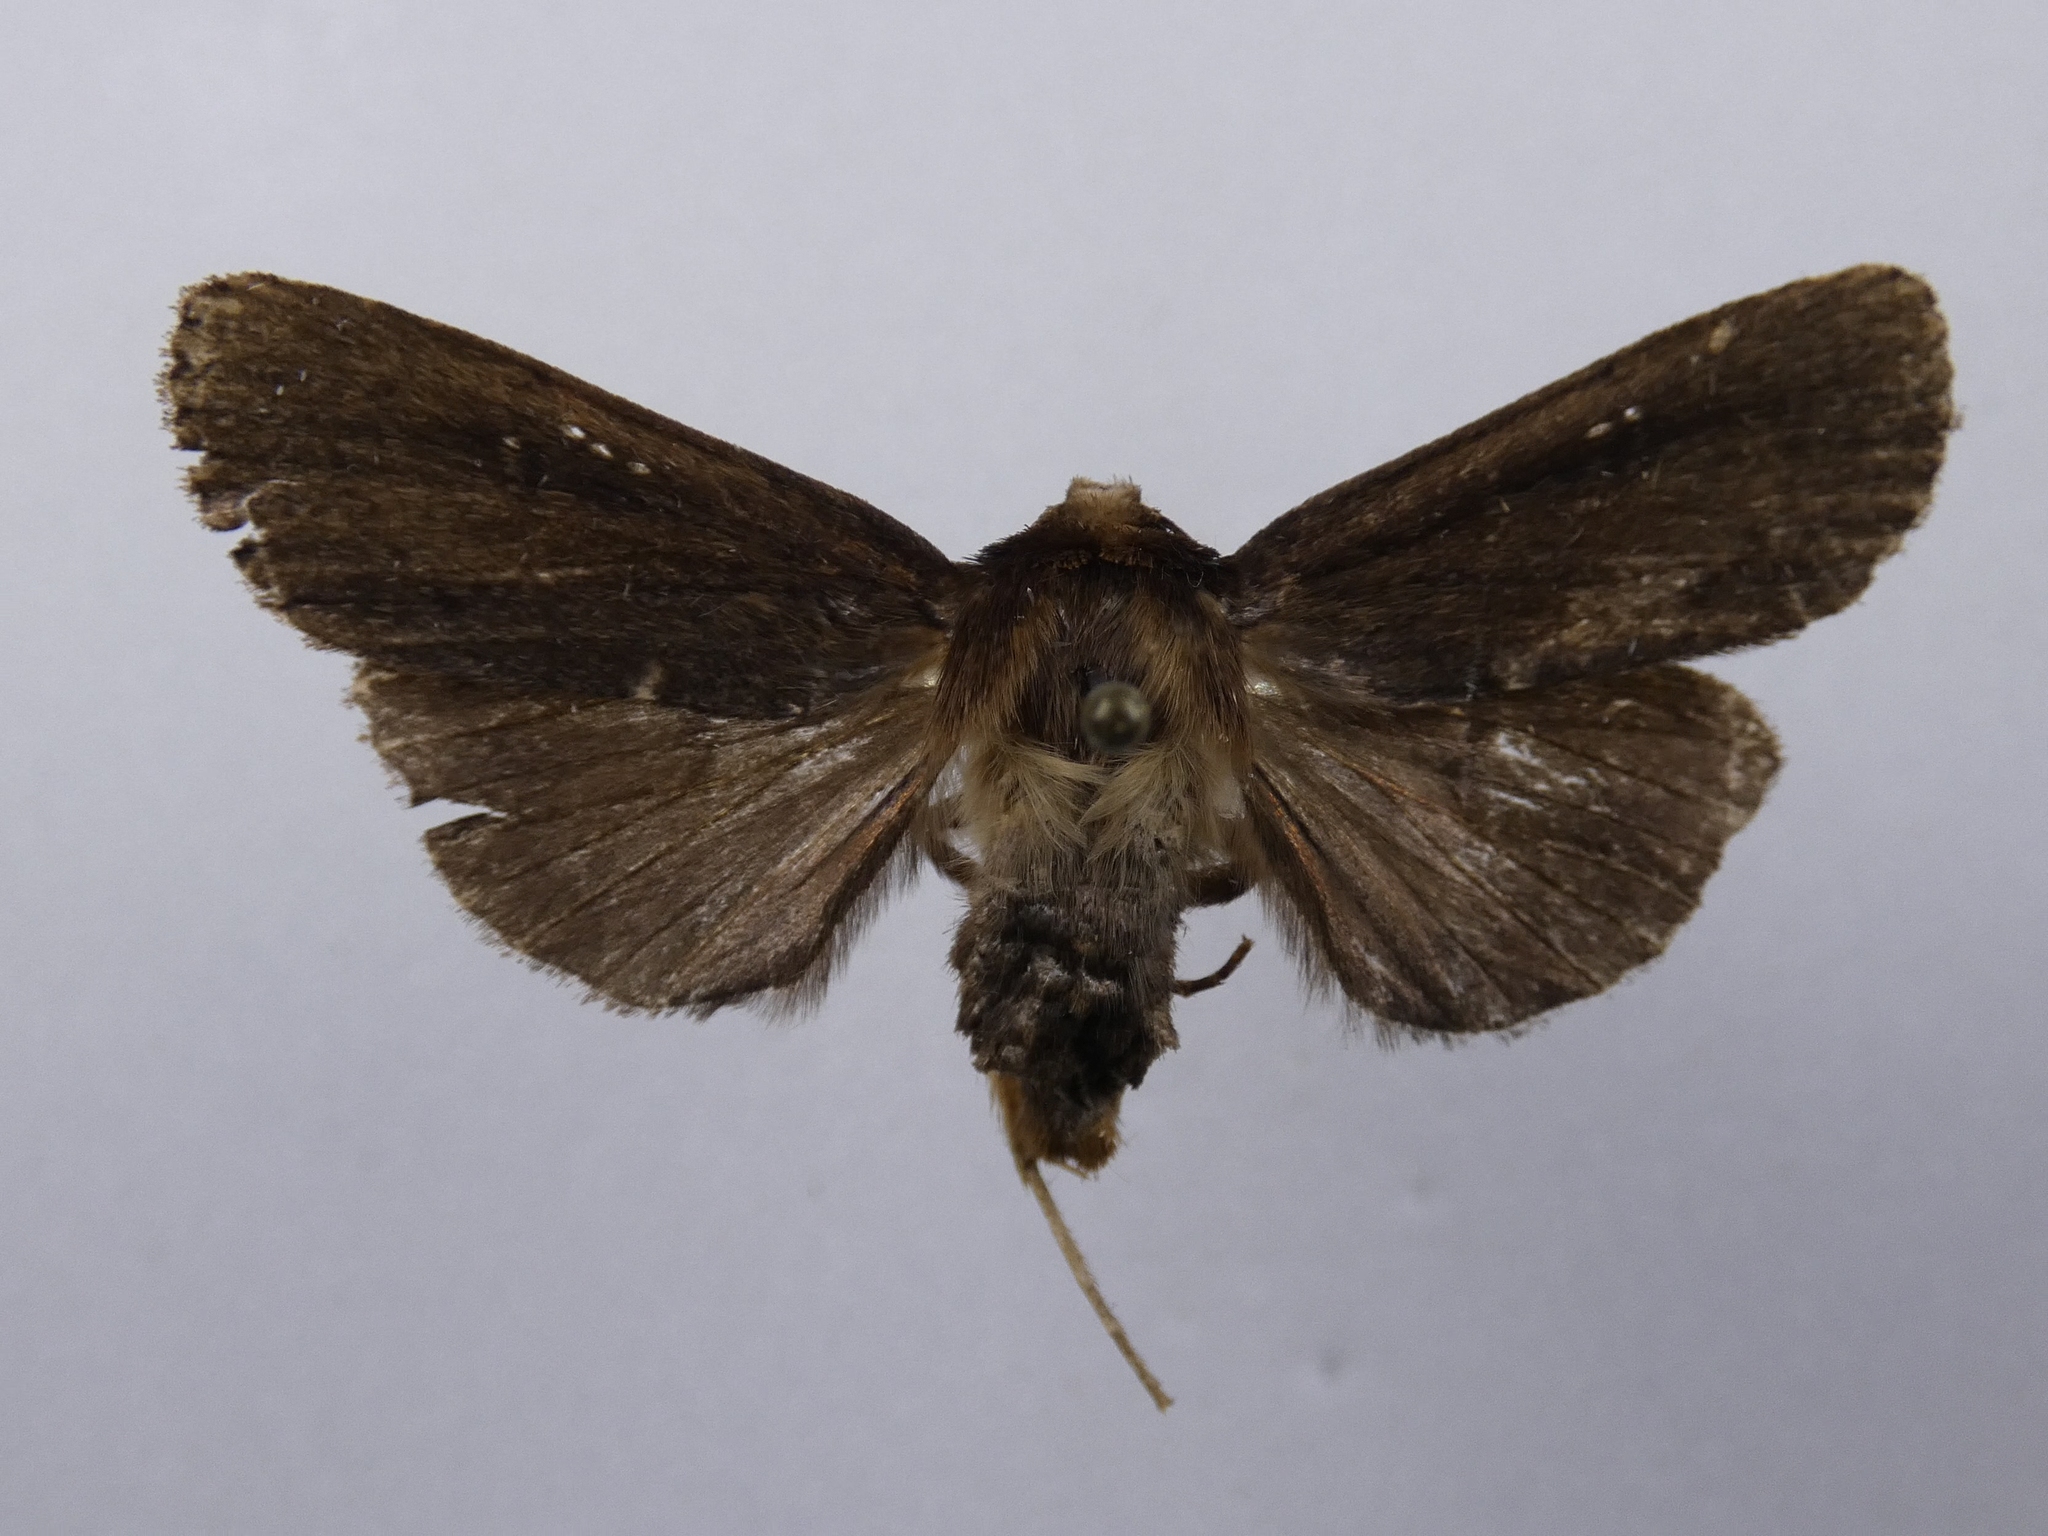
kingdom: Animalia
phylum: Arthropoda
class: Insecta
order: Lepidoptera
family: Noctuidae
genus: Bityla
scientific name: Bityla defigurata
